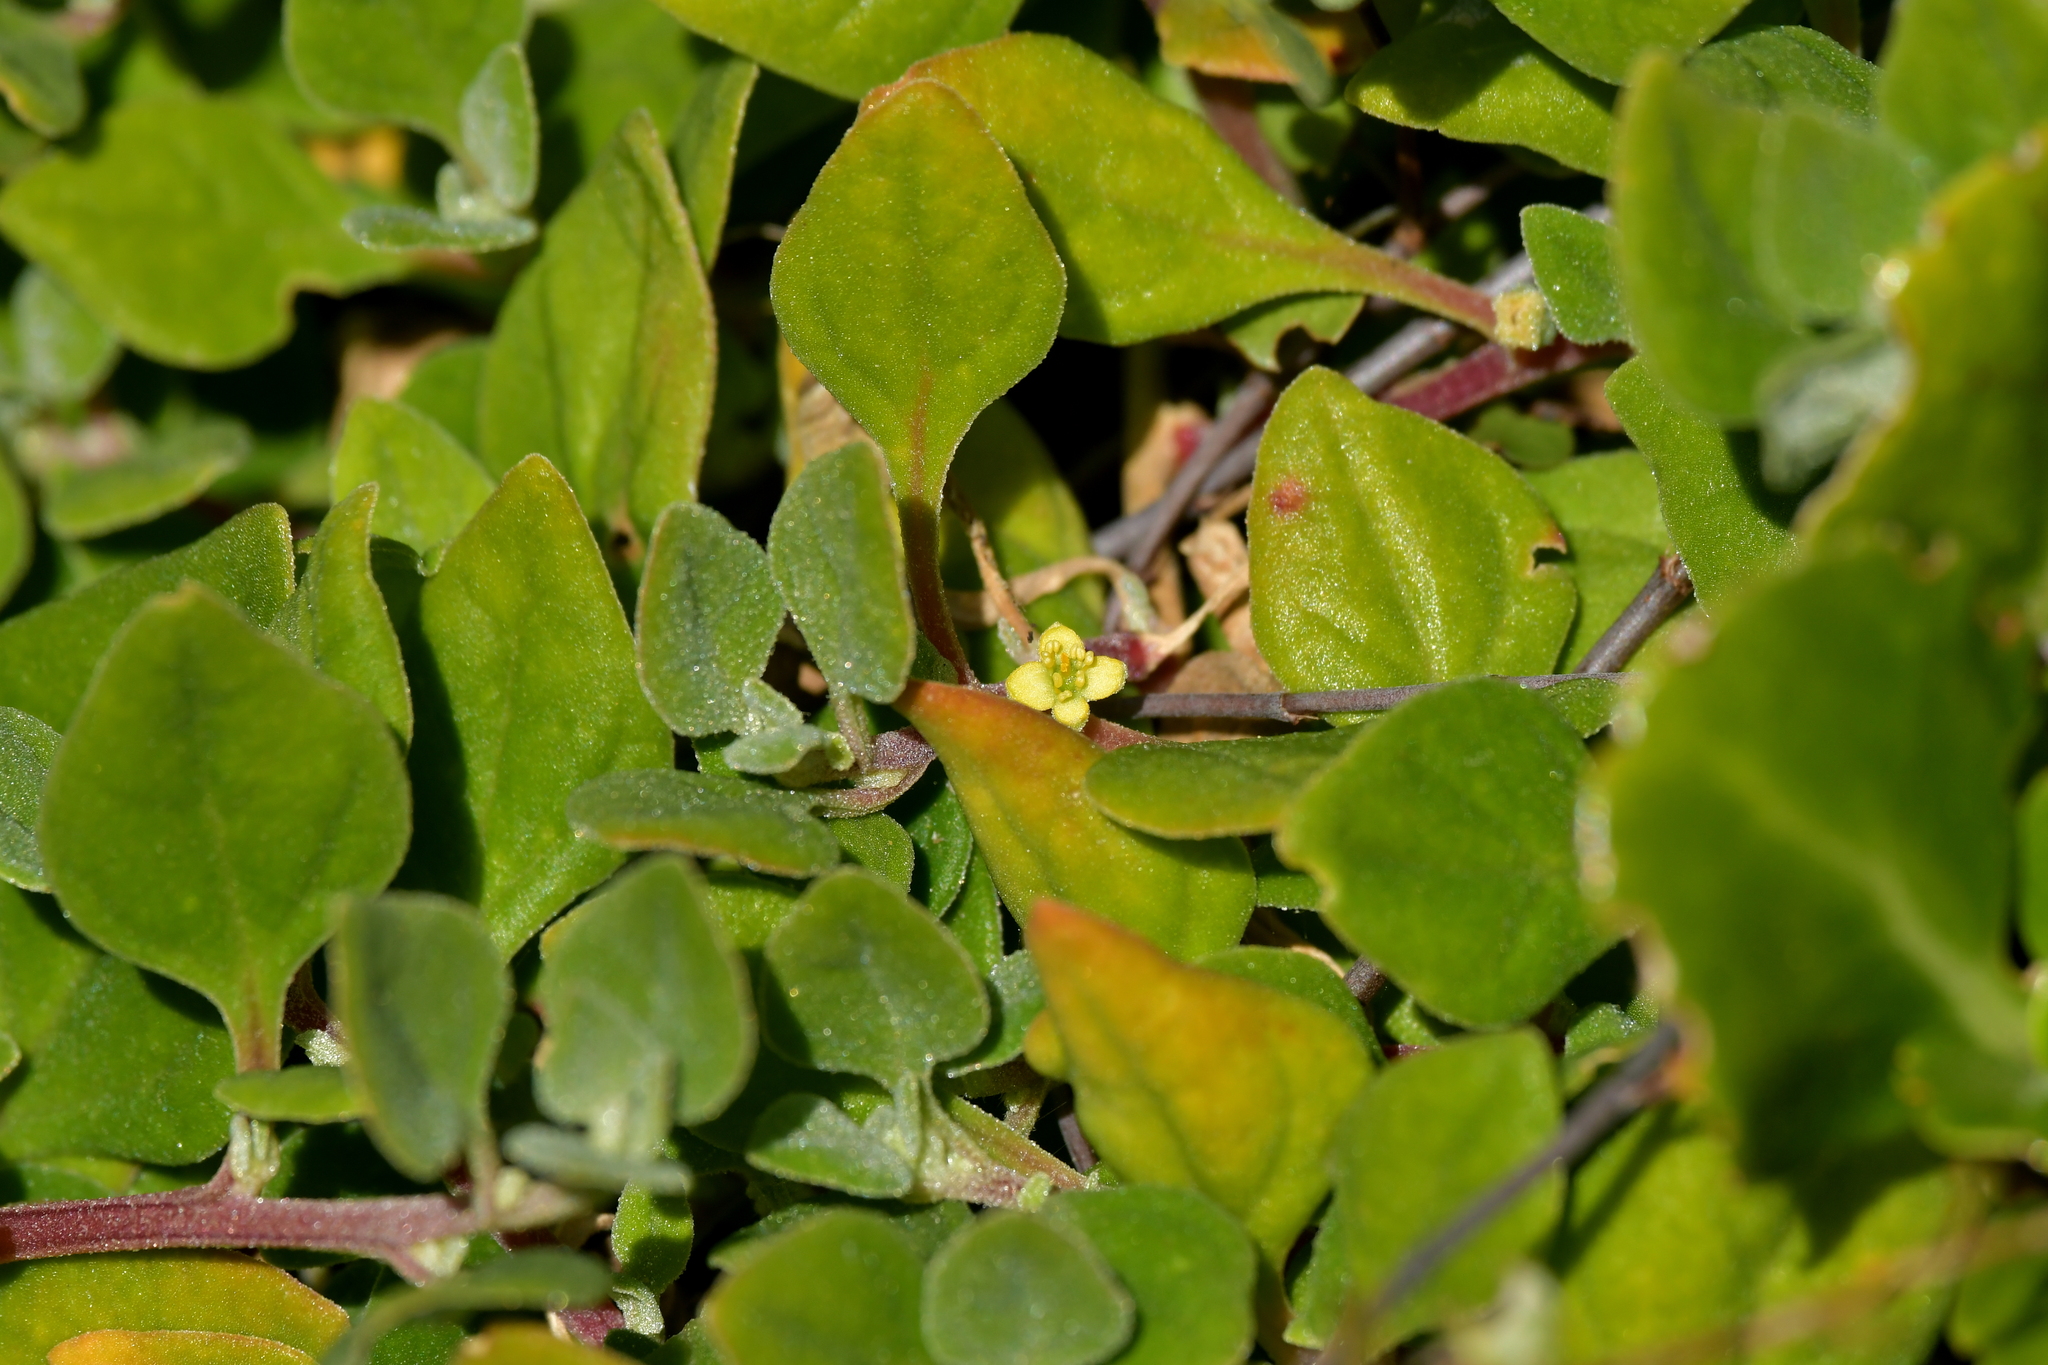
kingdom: Plantae
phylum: Tracheophyta
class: Magnoliopsida
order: Caryophyllales
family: Aizoaceae
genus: Tetragonia
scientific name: Tetragonia implexicoma
